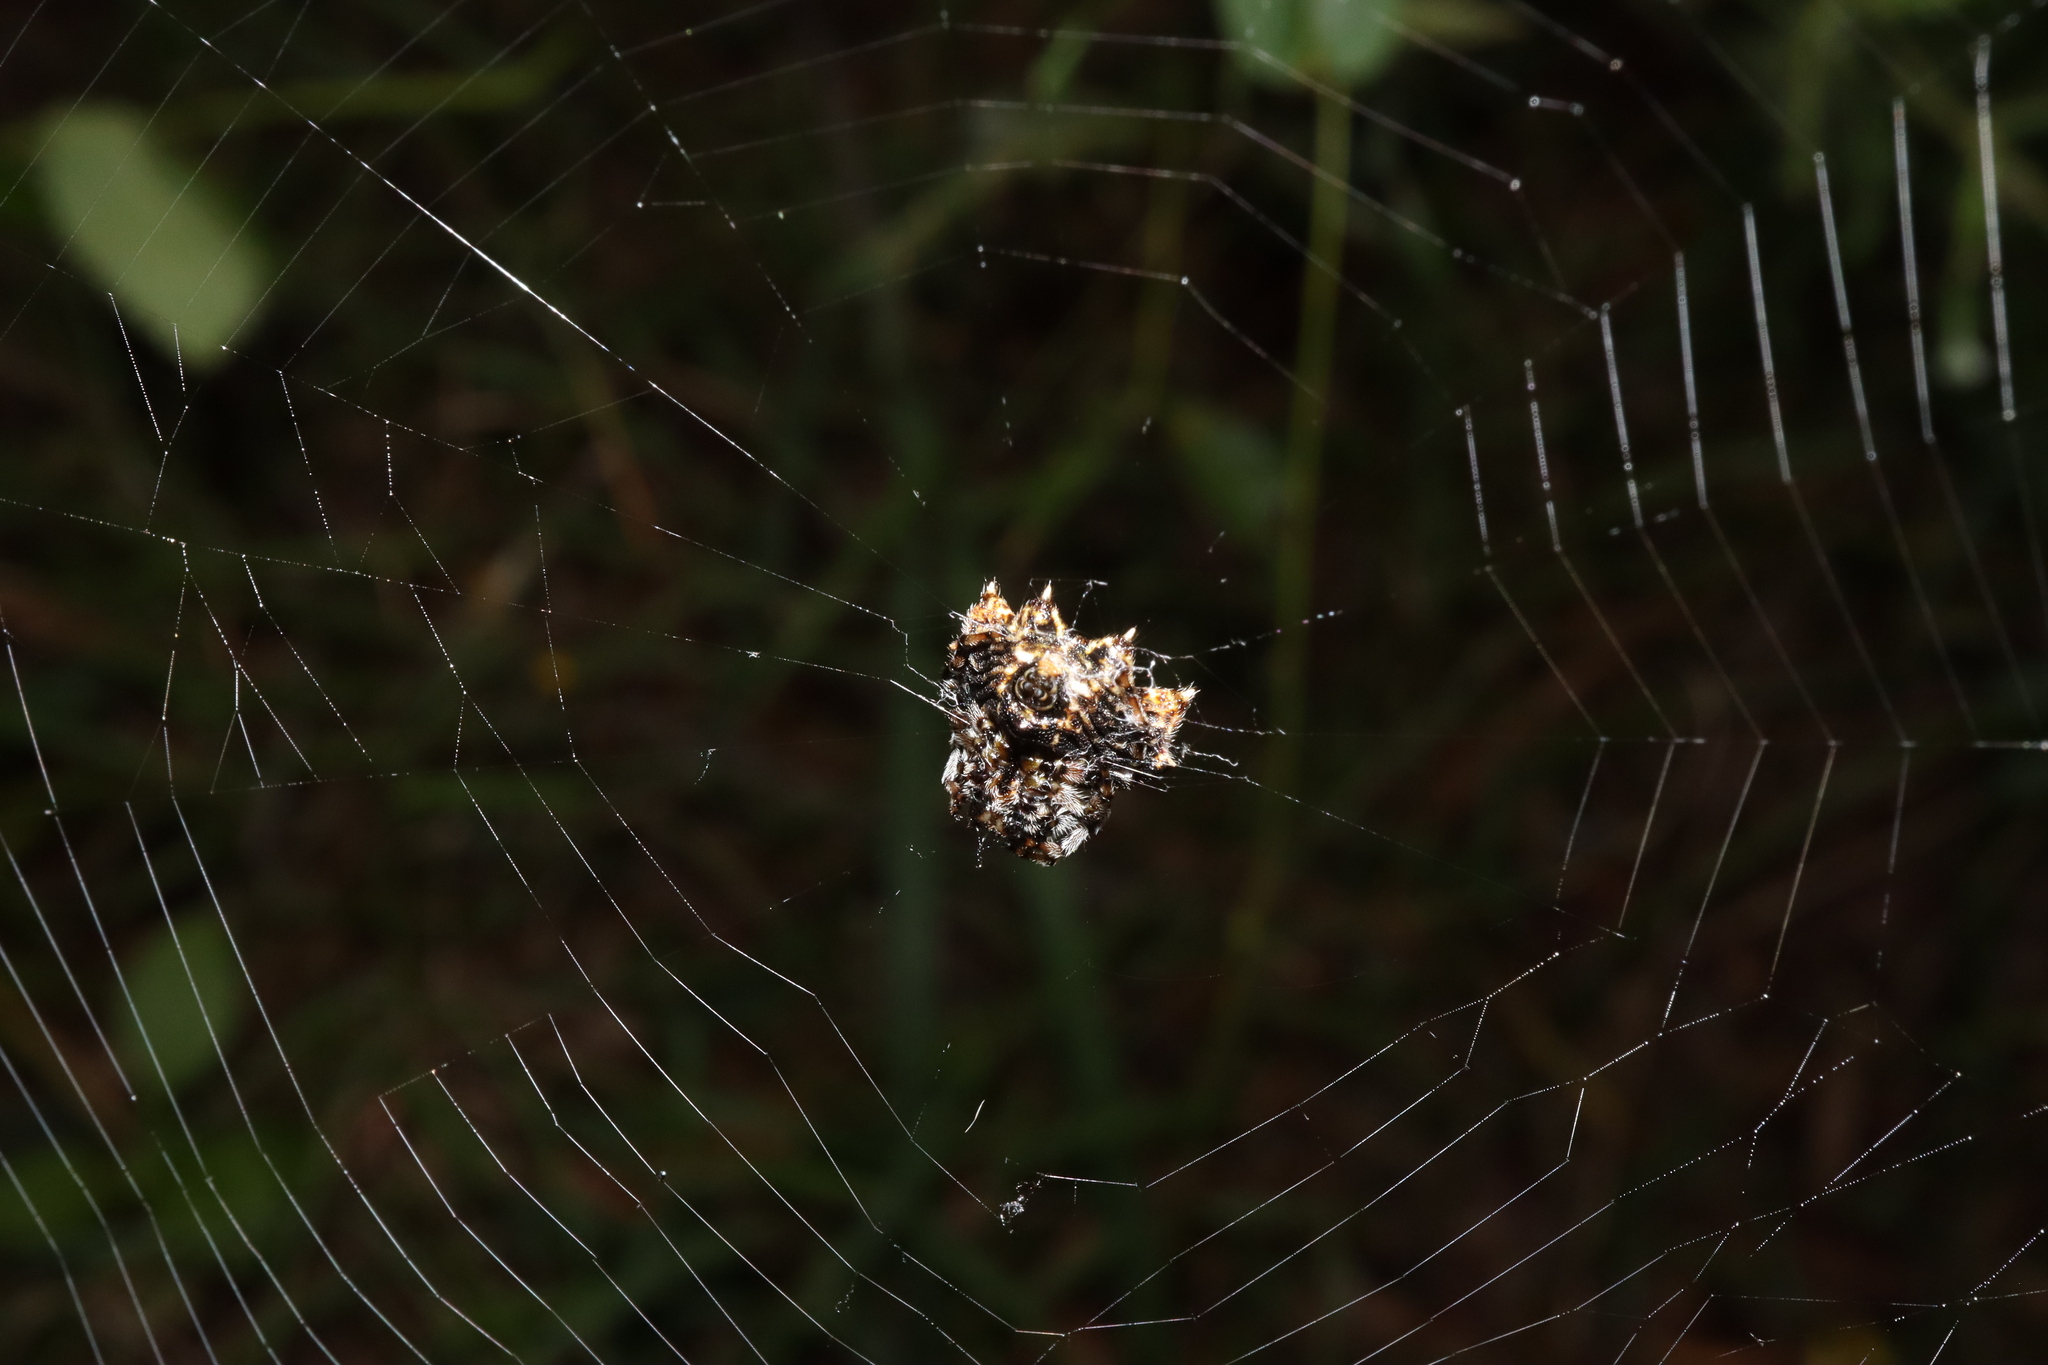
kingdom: Animalia
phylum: Arthropoda
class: Arachnida
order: Araneae
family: Araneidae
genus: Gasteracantha
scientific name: Gasteracantha sacerdotalis
